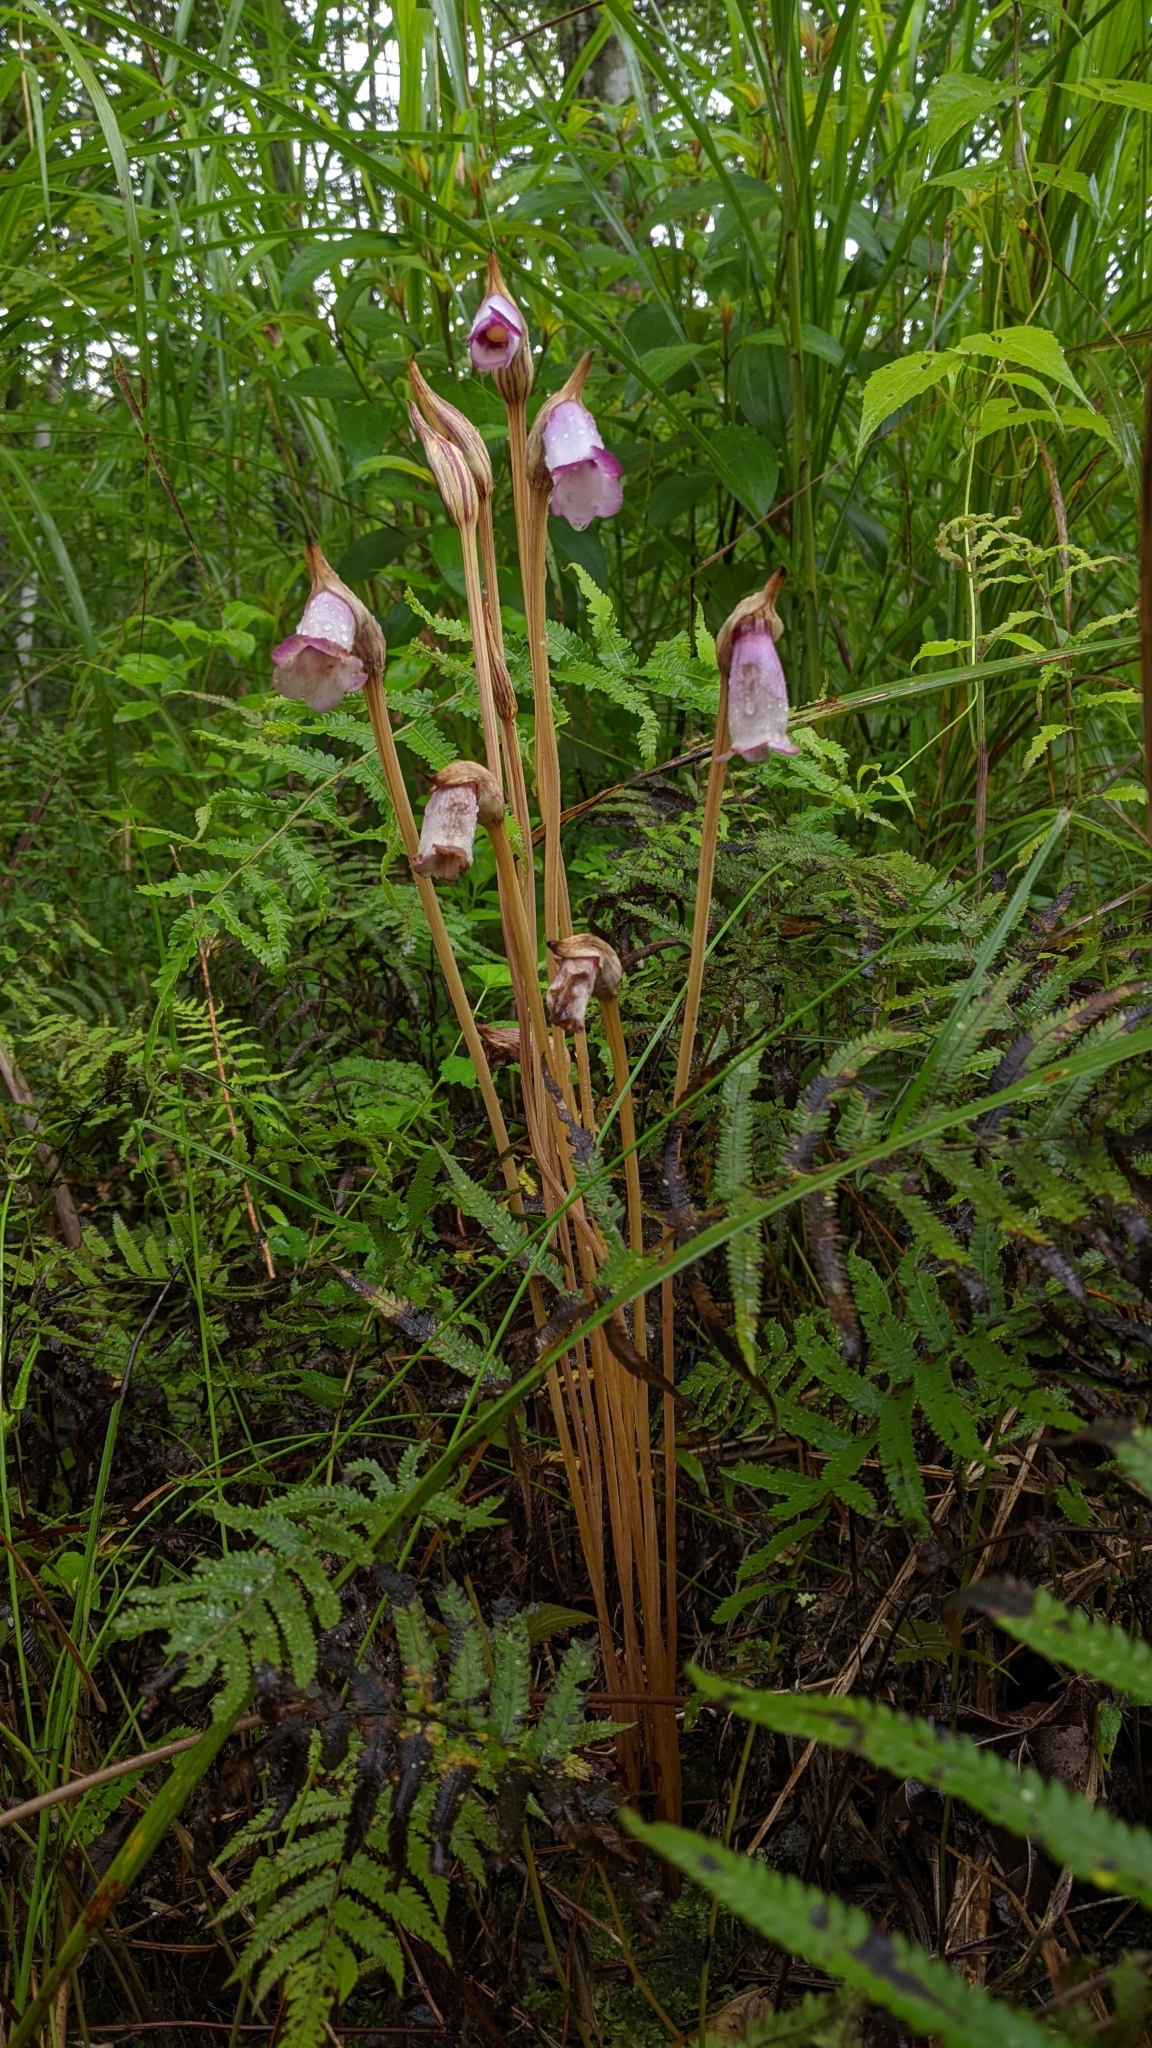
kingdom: Plantae
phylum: Tracheophyta
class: Magnoliopsida
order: Lamiales
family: Orobanchaceae
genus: Aeginetia
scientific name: Aeginetia indica
